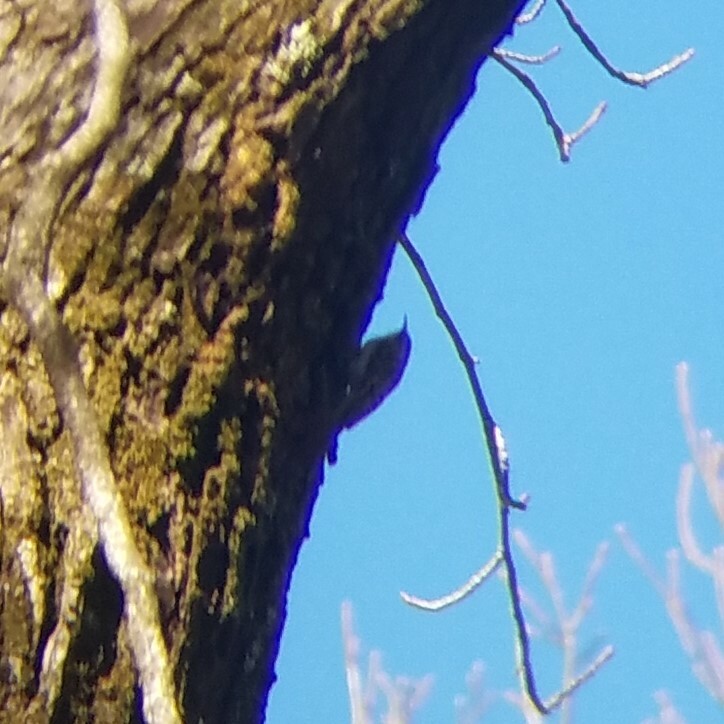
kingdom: Animalia
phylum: Chordata
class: Aves
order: Passeriformes
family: Certhiidae
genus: Certhia
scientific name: Certhia americana
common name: Brown creeper
